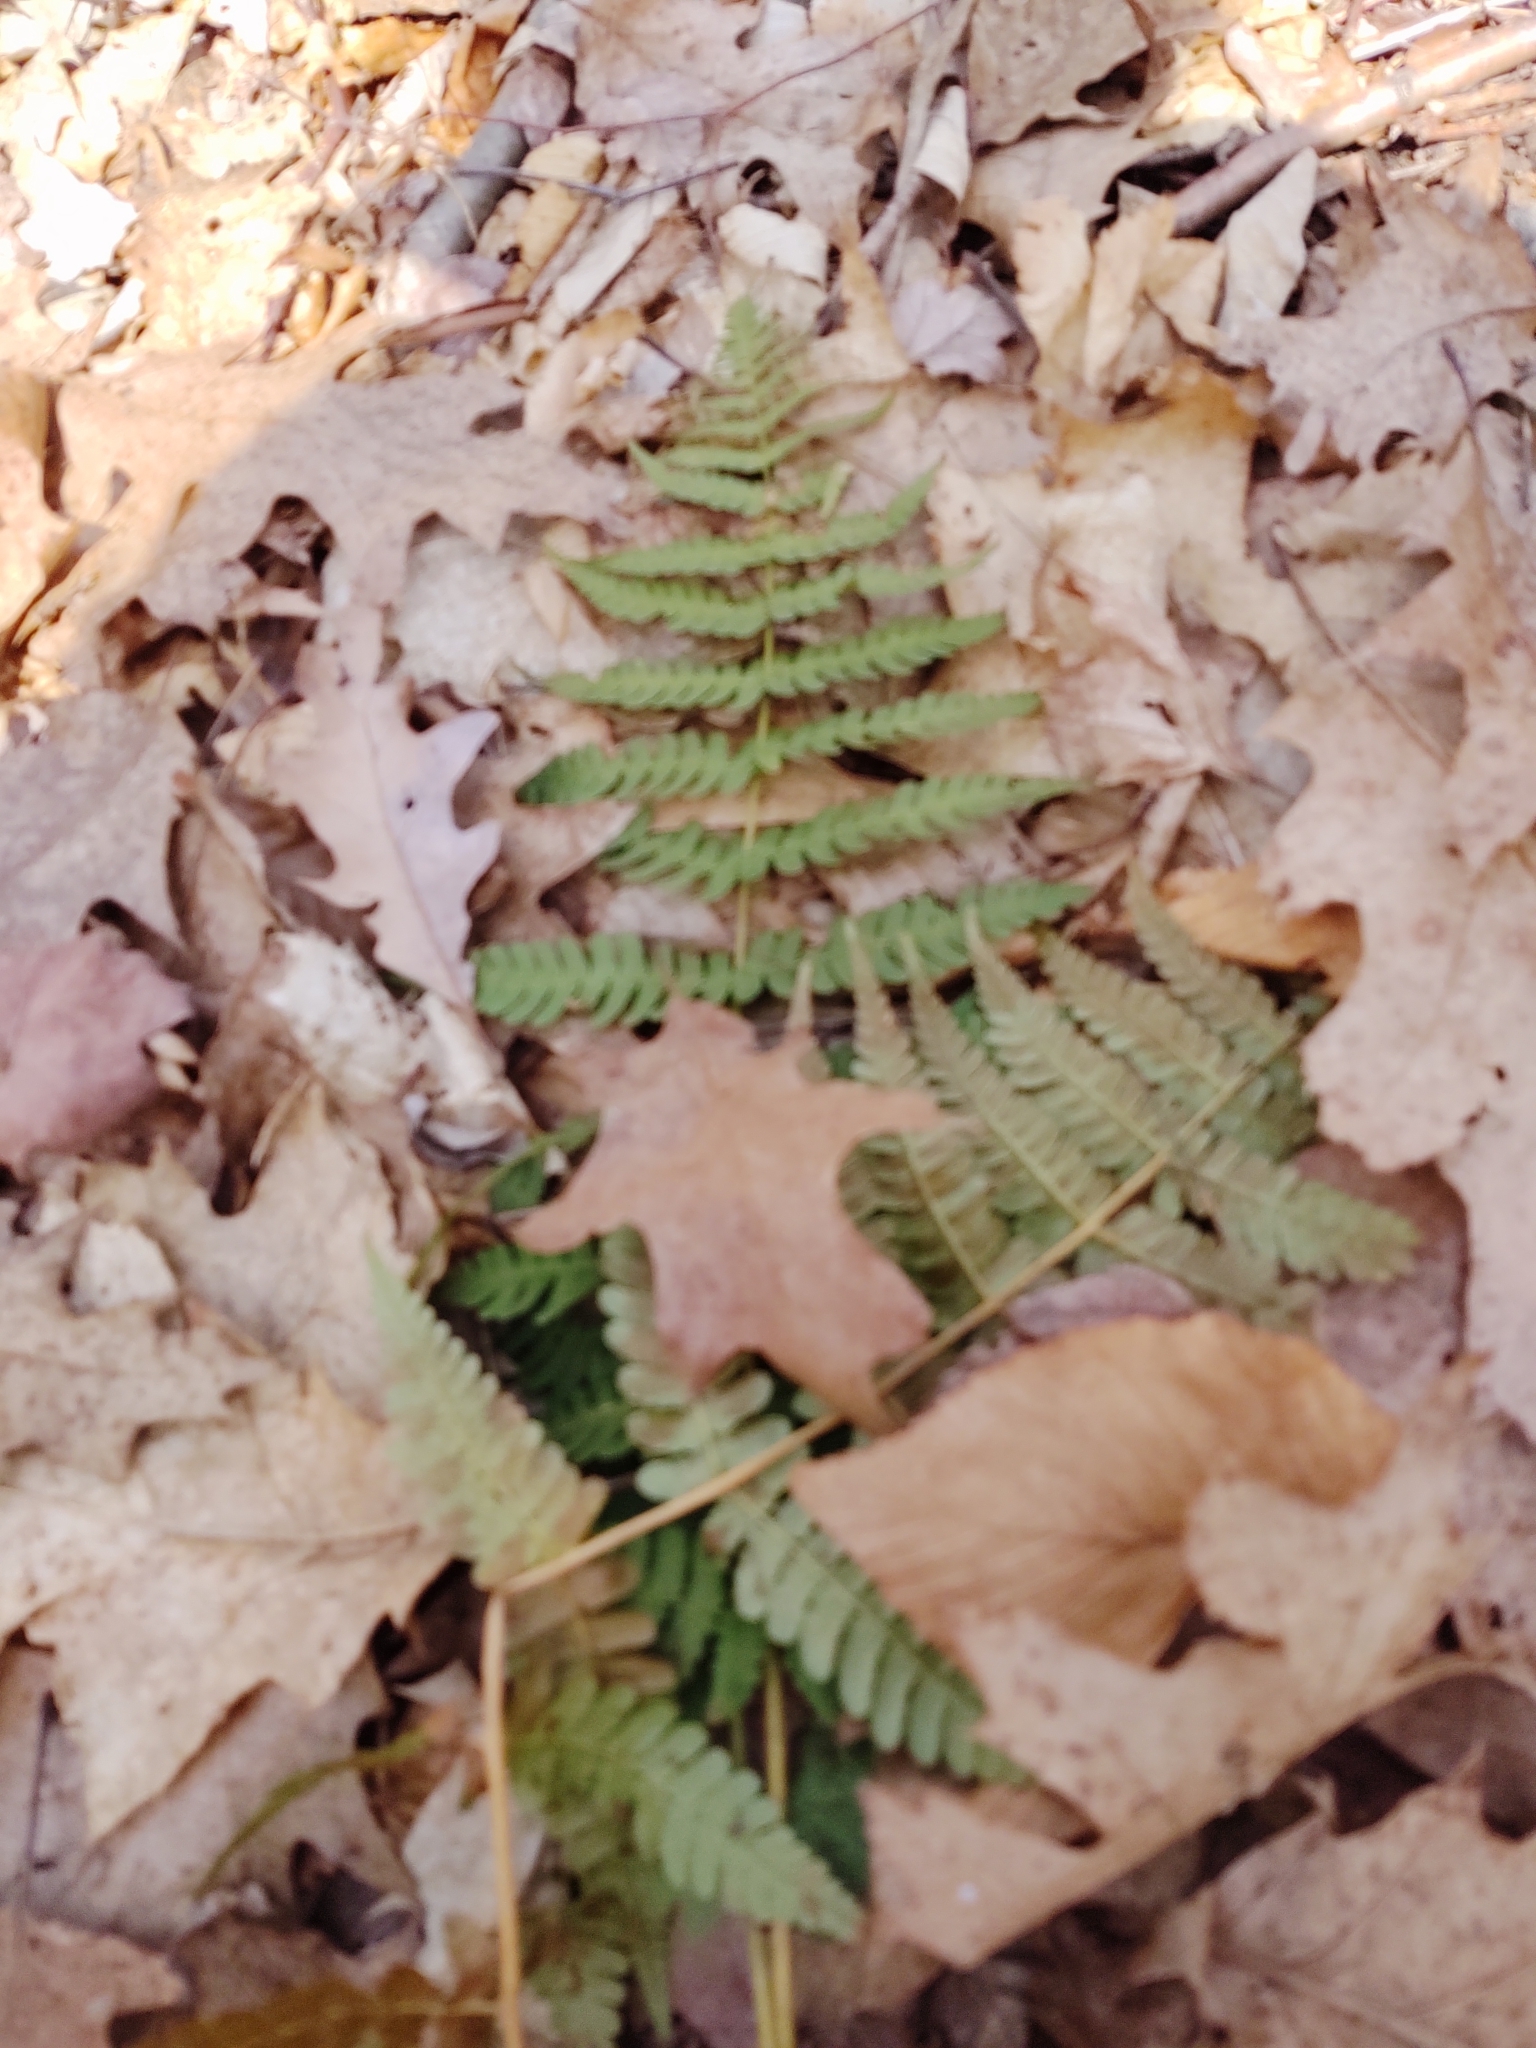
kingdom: Plantae
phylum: Tracheophyta
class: Polypodiopsida
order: Polypodiales
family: Dryopteridaceae
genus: Dryopteris
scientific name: Dryopteris marginalis
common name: Marginal wood fern
